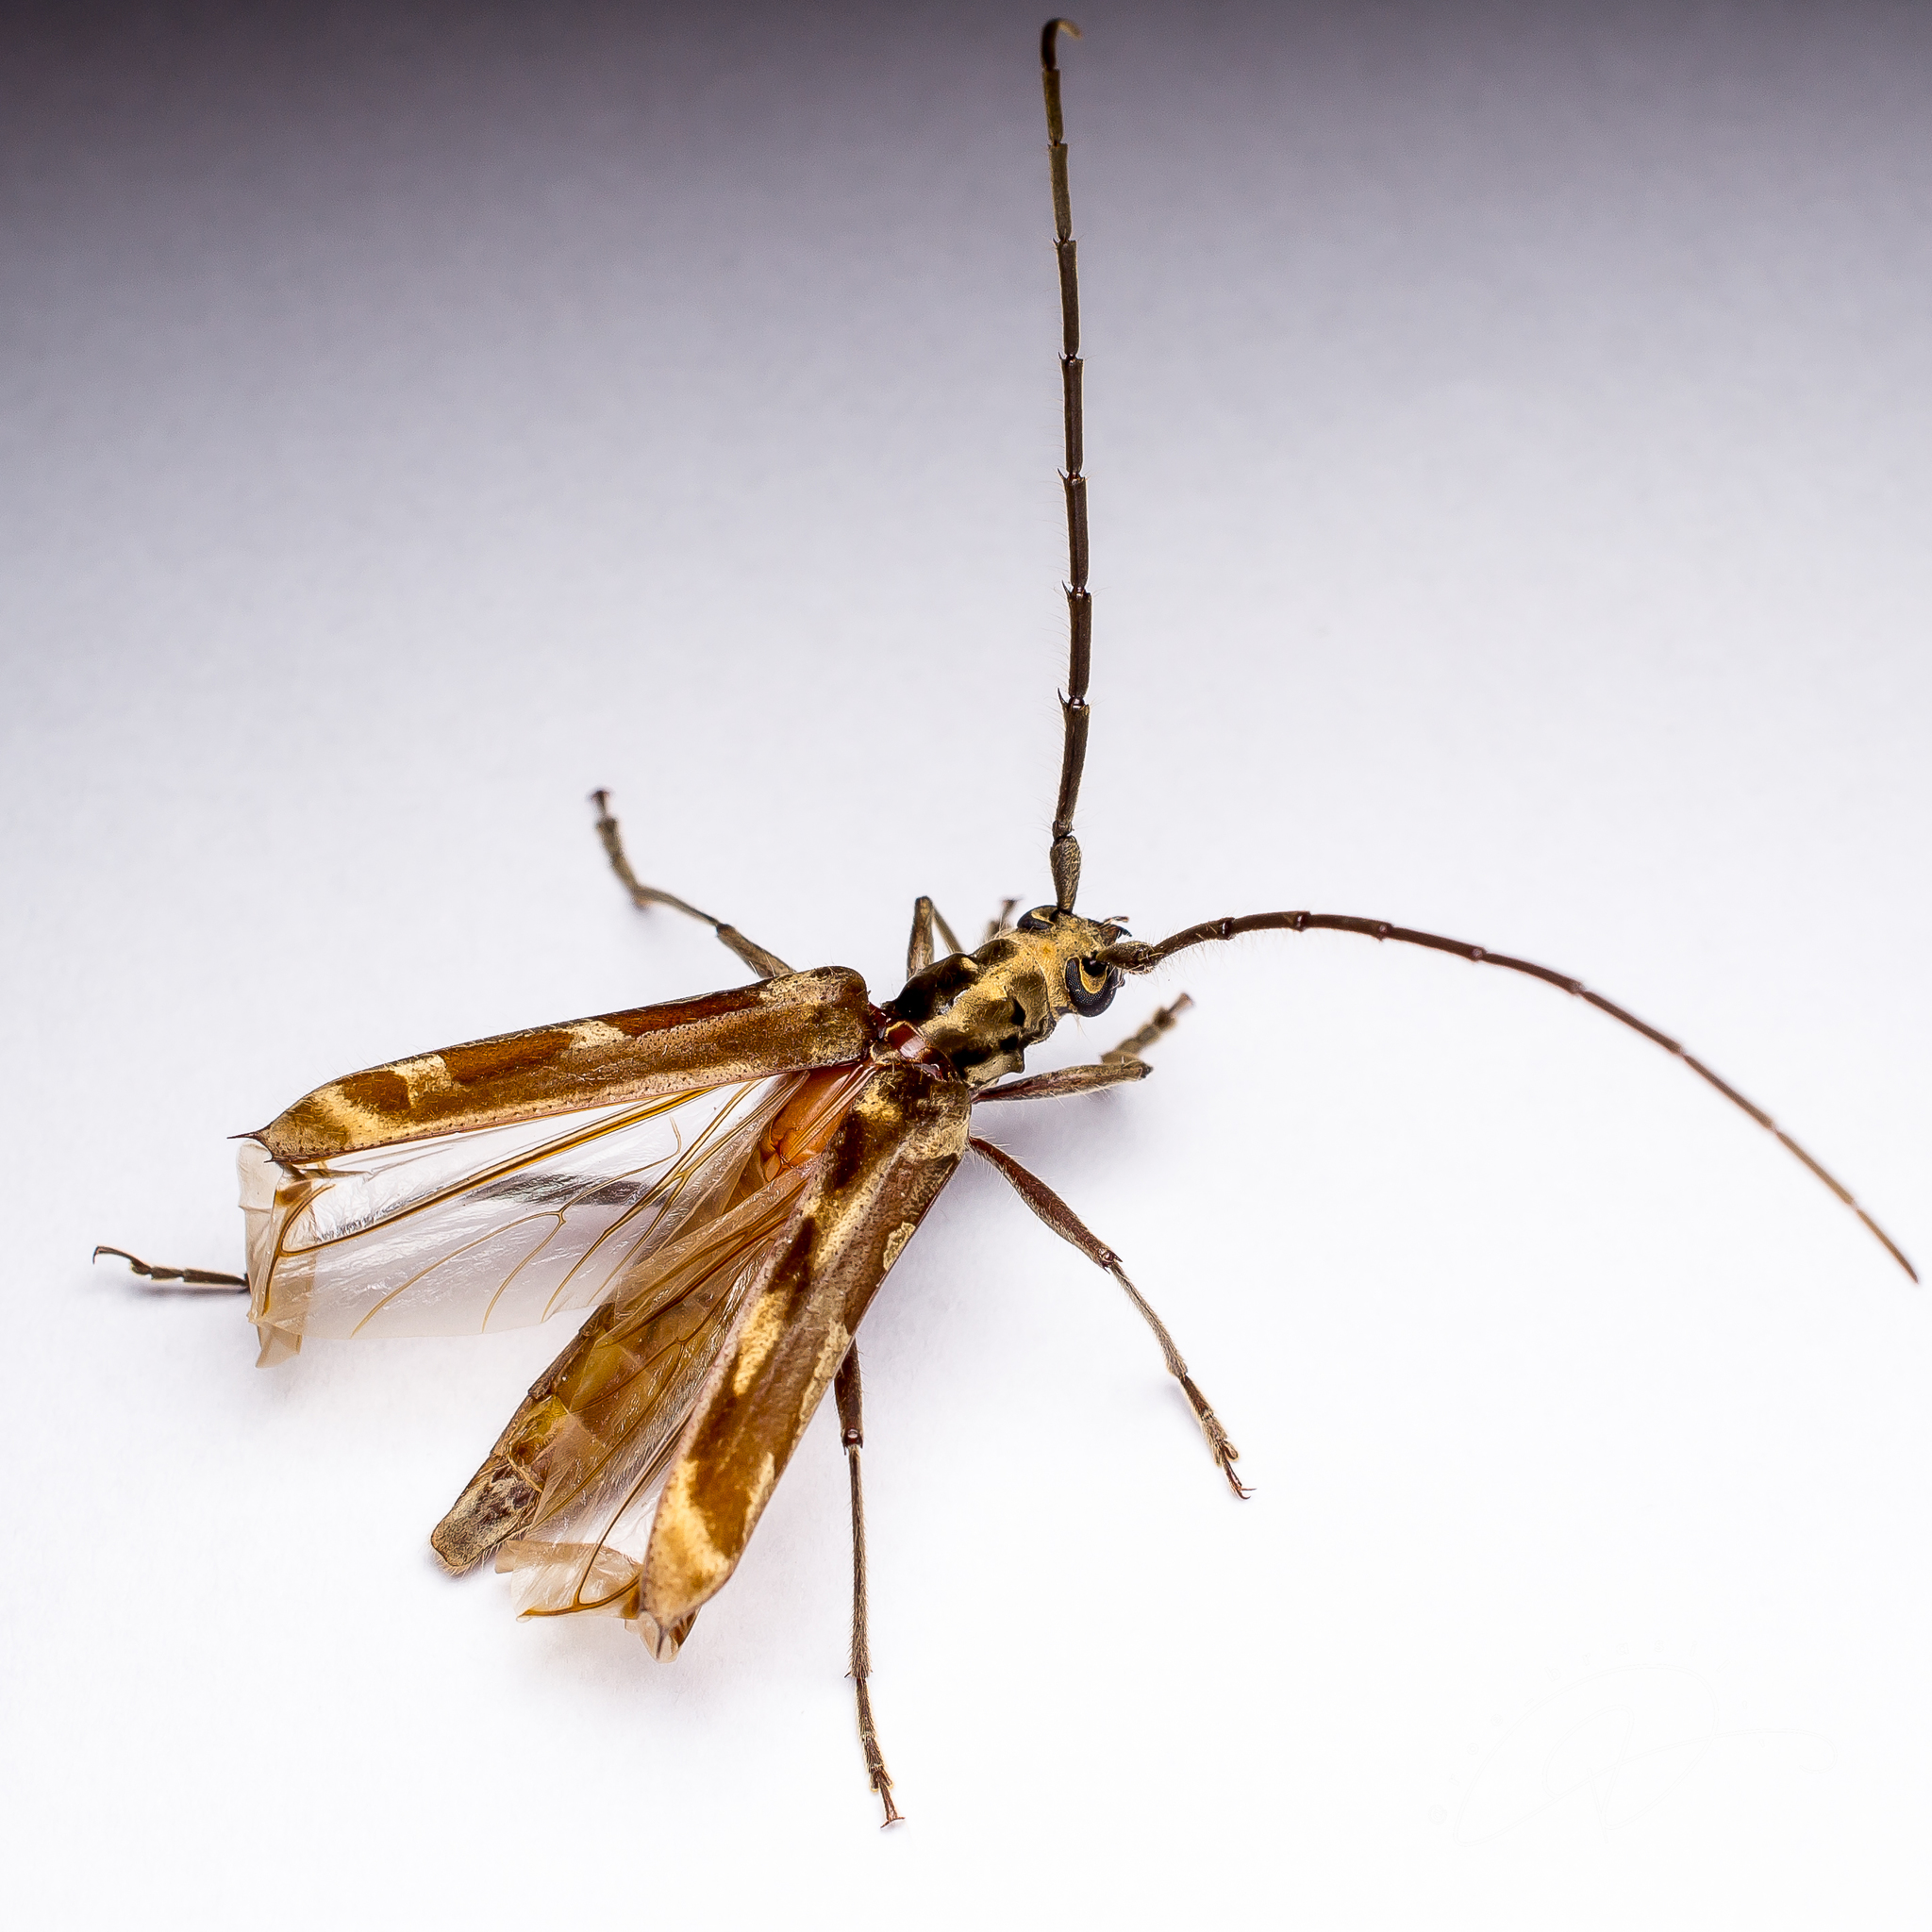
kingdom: Animalia
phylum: Arthropoda
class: Insecta
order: Coleoptera
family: Cerambycidae
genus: Mallocera
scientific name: Mallocera glauca
